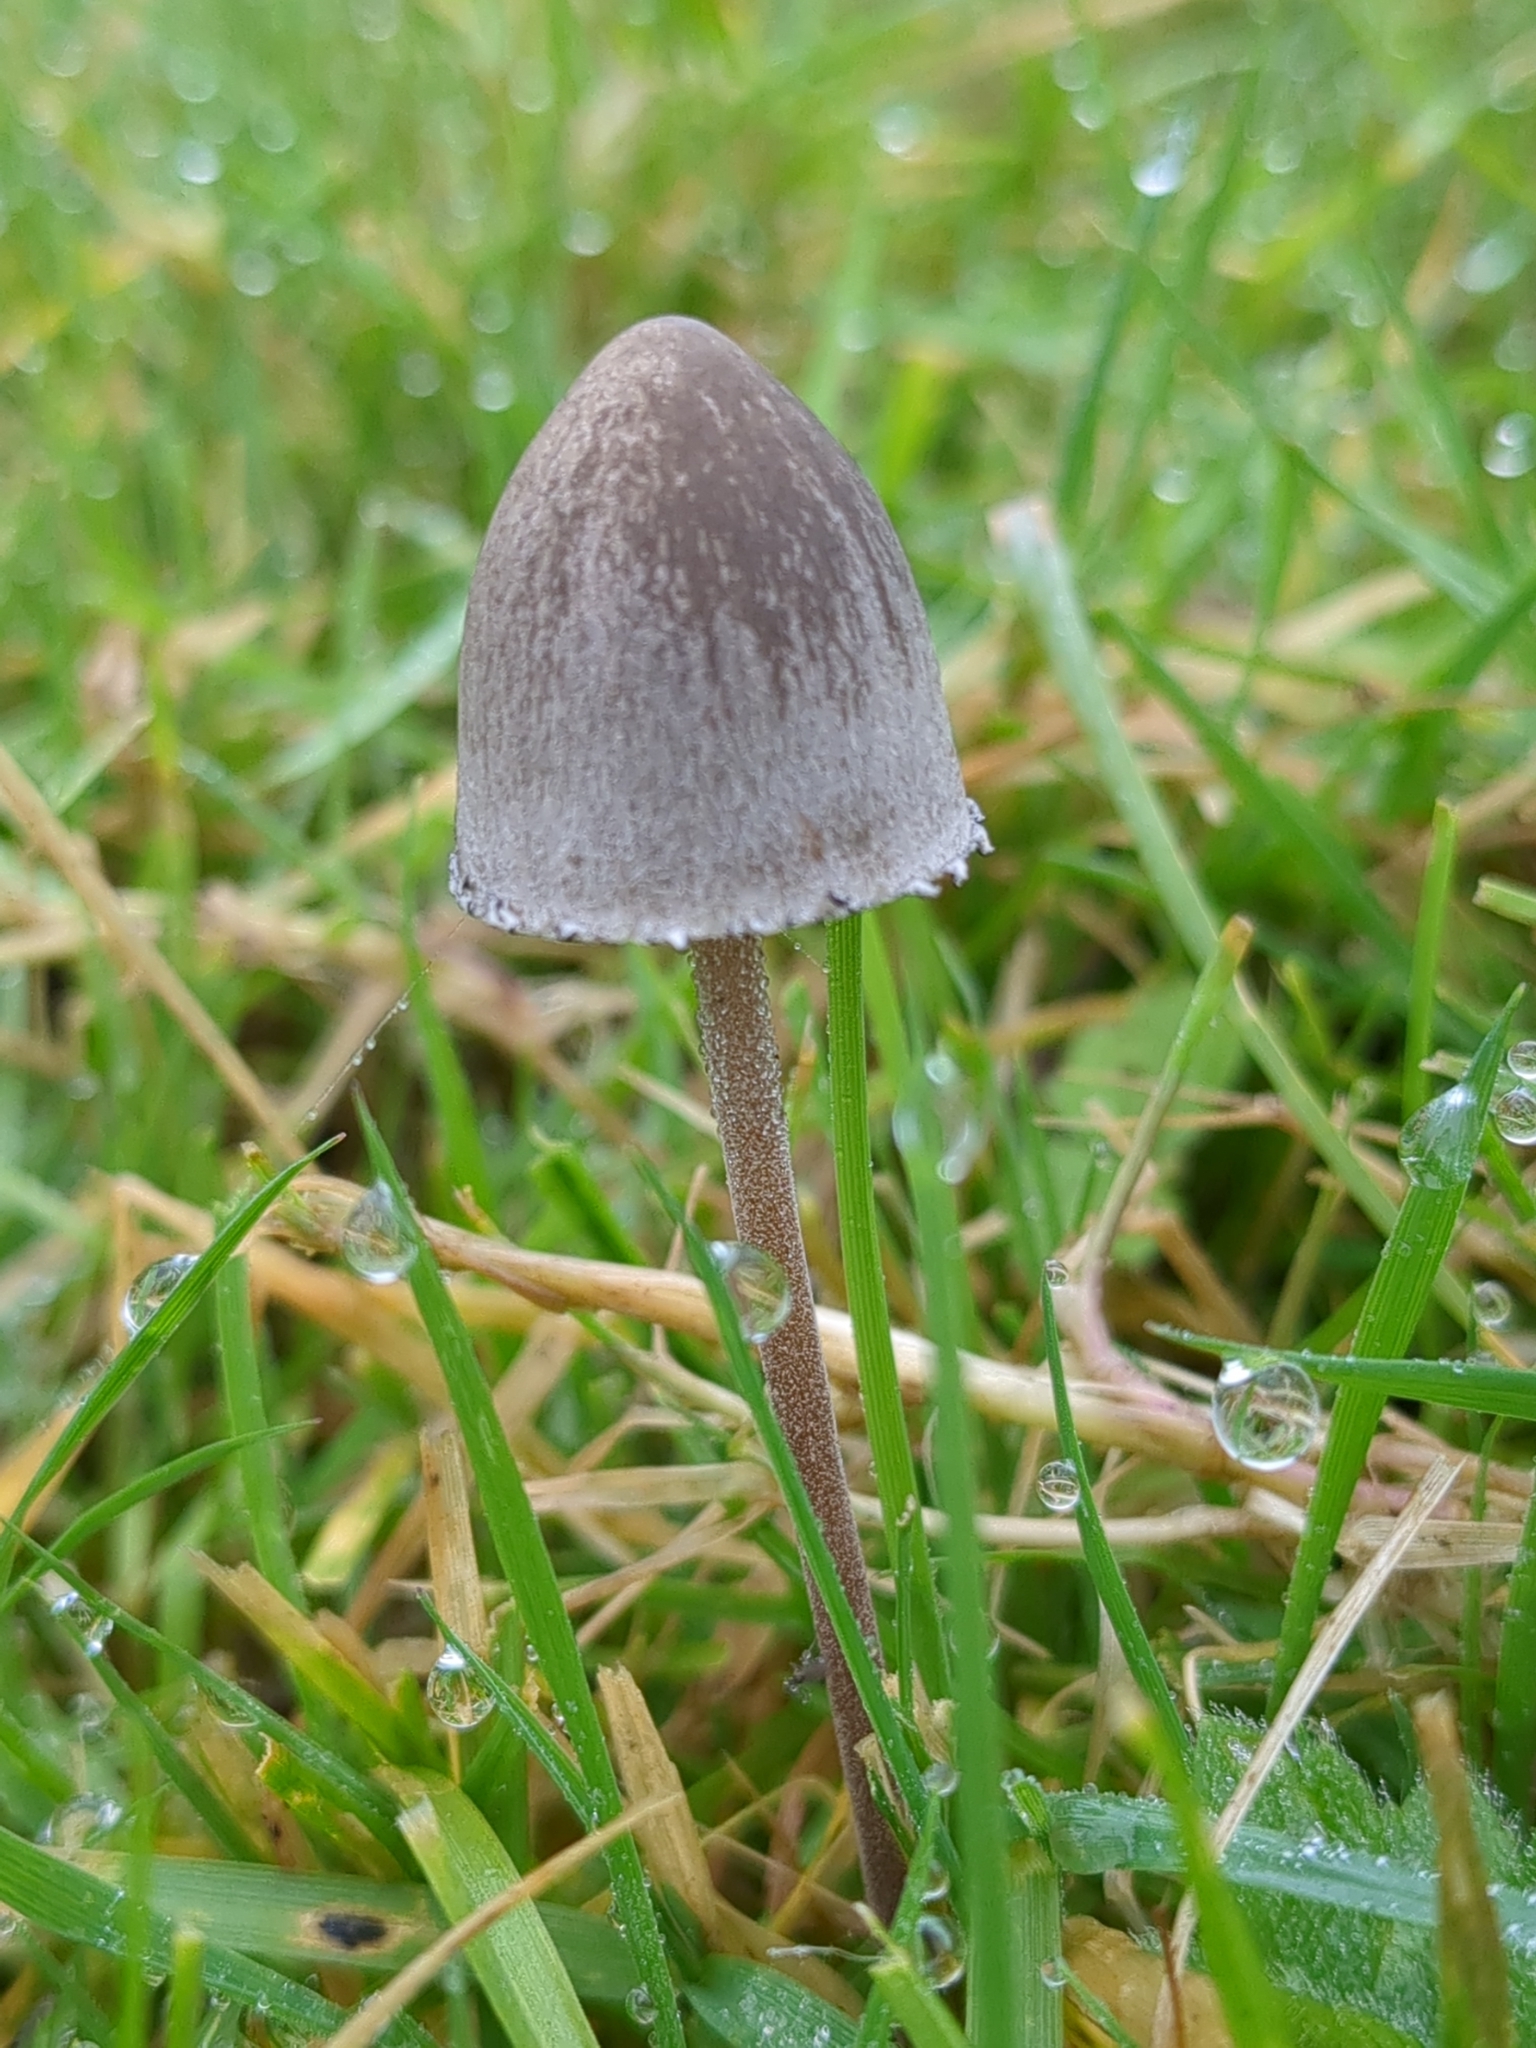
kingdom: Fungi
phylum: Basidiomycota
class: Agaricomycetes
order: Agaricales
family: Bolbitiaceae
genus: Panaeolus
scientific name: Panaeolus papilionaceus
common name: Petticoat mottlegill
